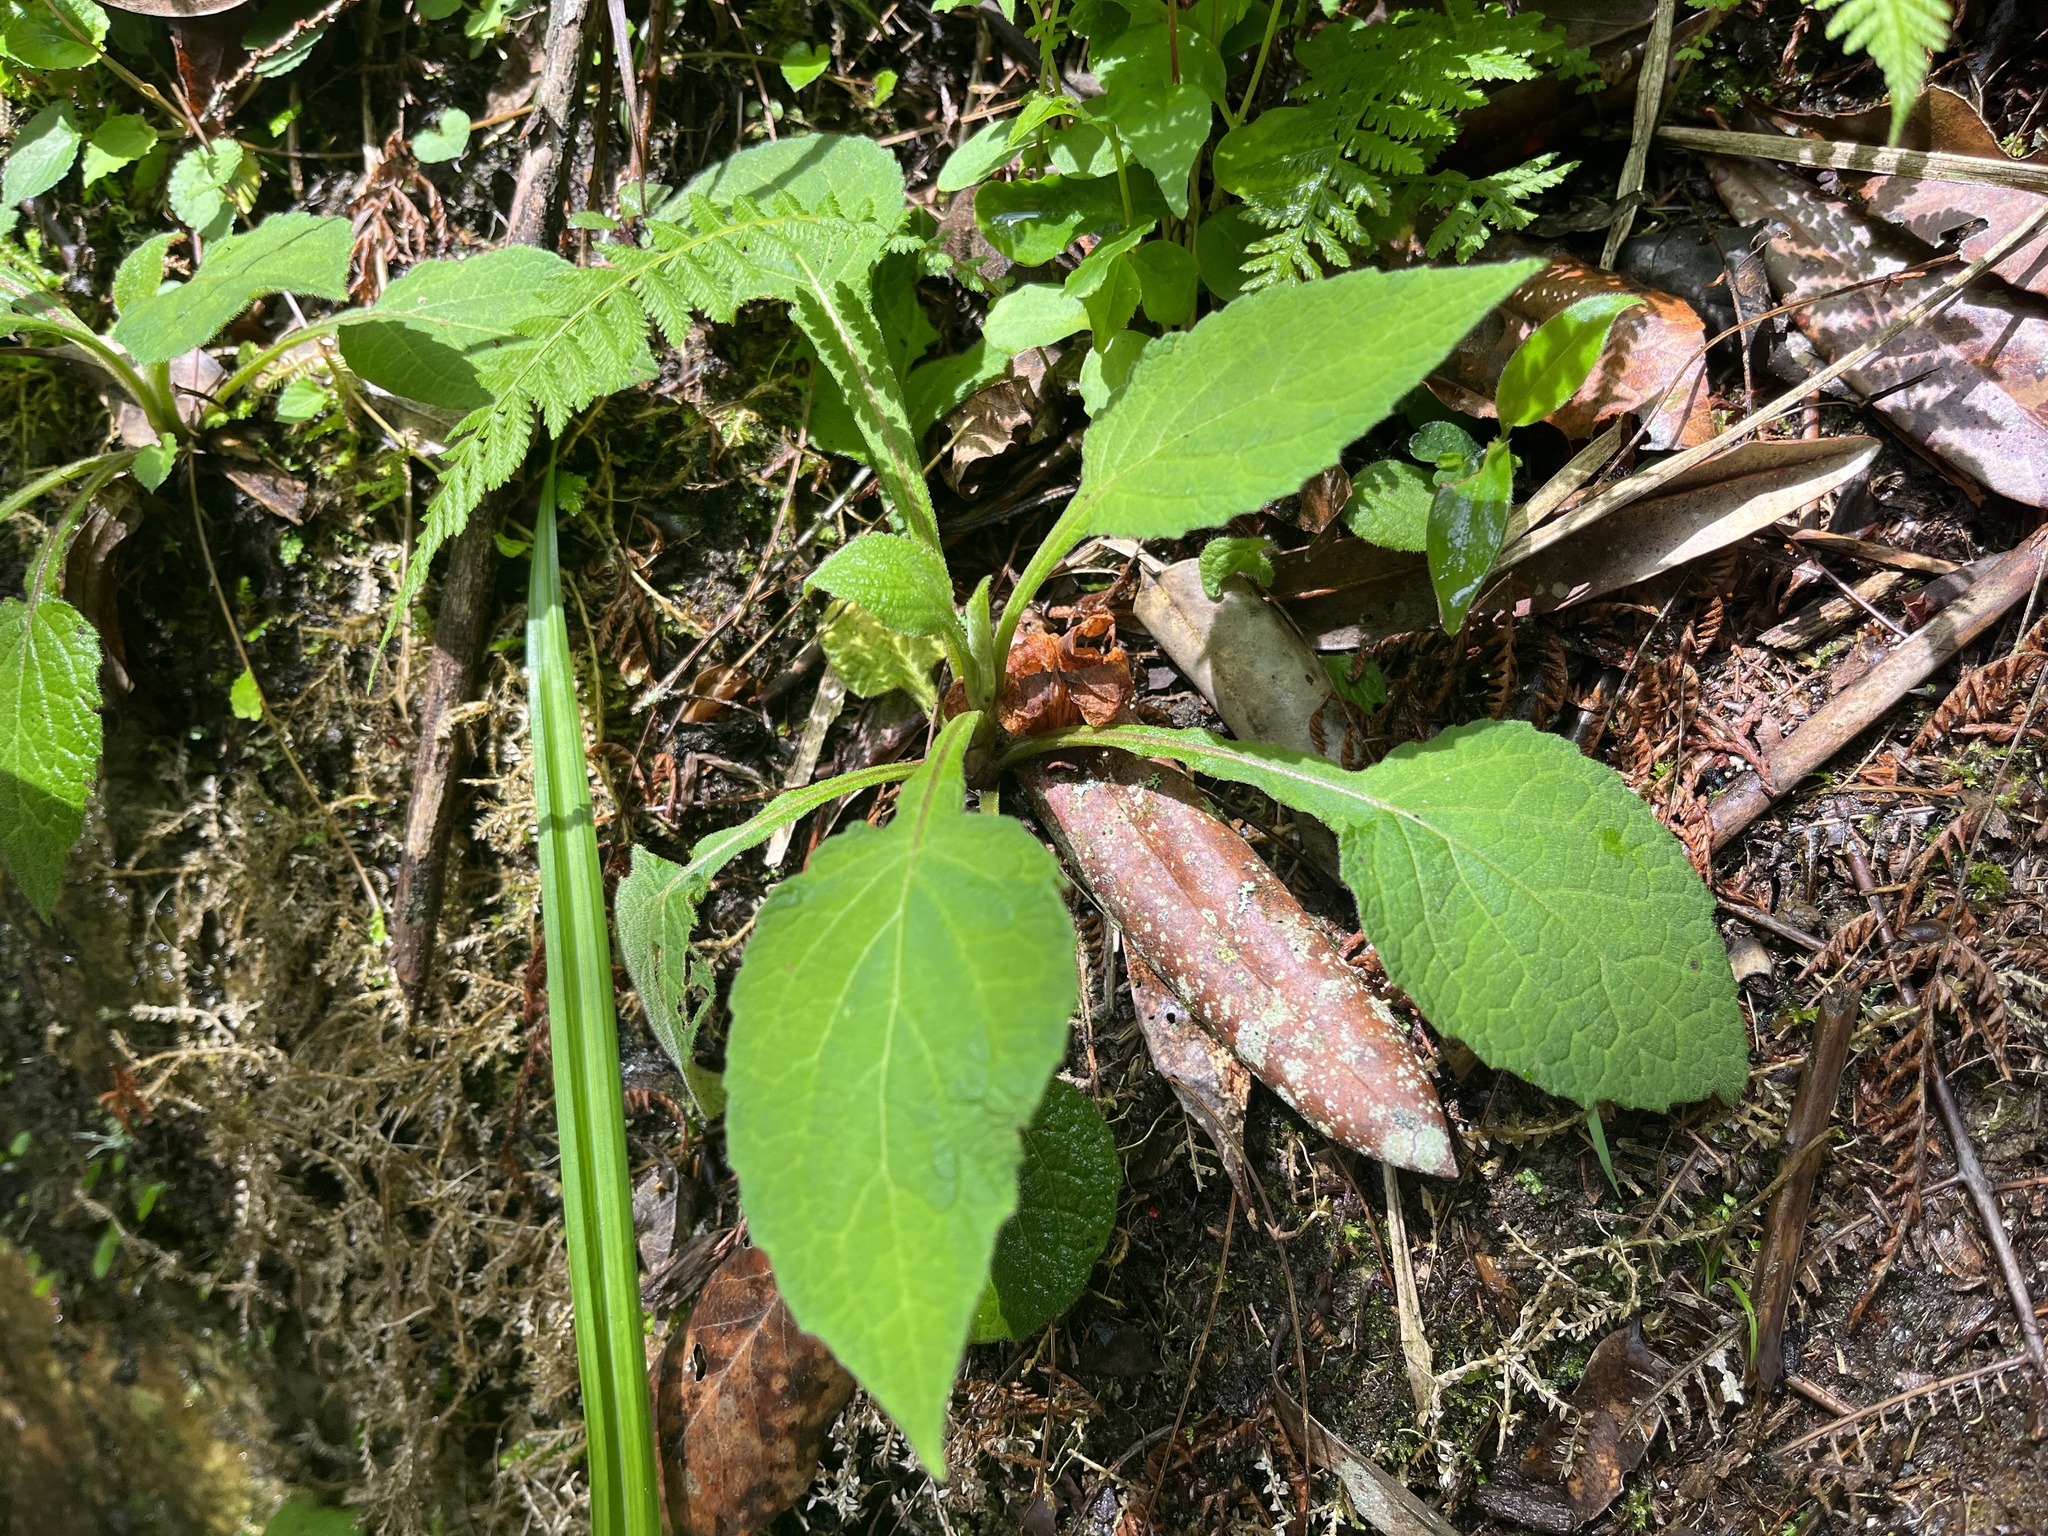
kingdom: Plantae
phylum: Tracheophyta
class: Magnoliopsida
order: Asterales
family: Asteraceae
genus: Carpesium
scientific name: Carpesium nepalense
